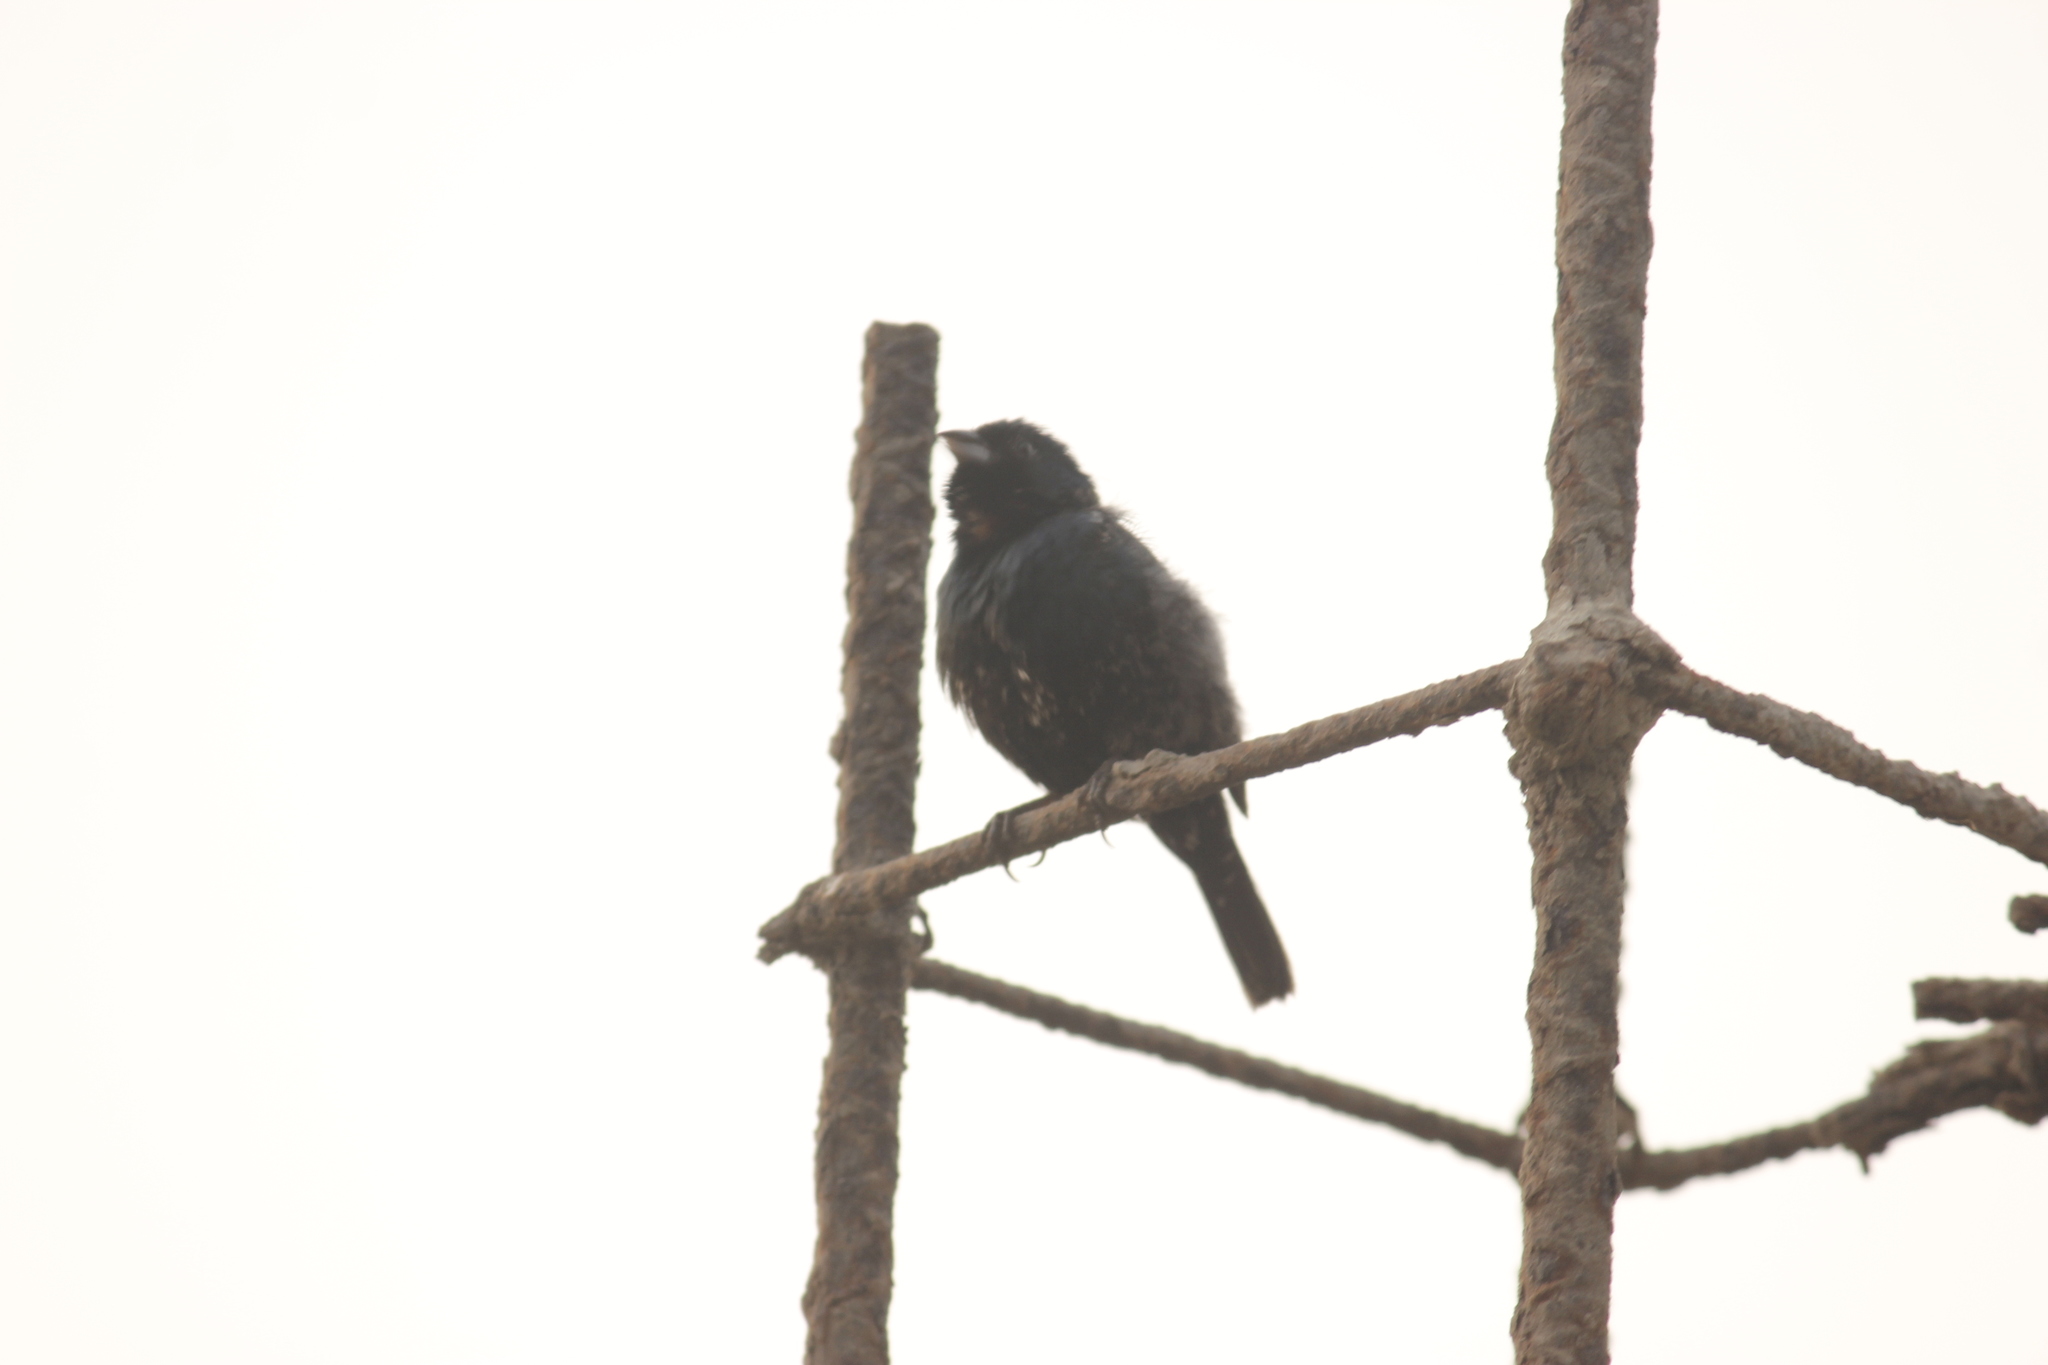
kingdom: Animalia
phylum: Chordata
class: Aves
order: Passeriformes
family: Thraupidae
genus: Volatinia
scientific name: Volatinia jacarina
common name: Blue-black grassquit
